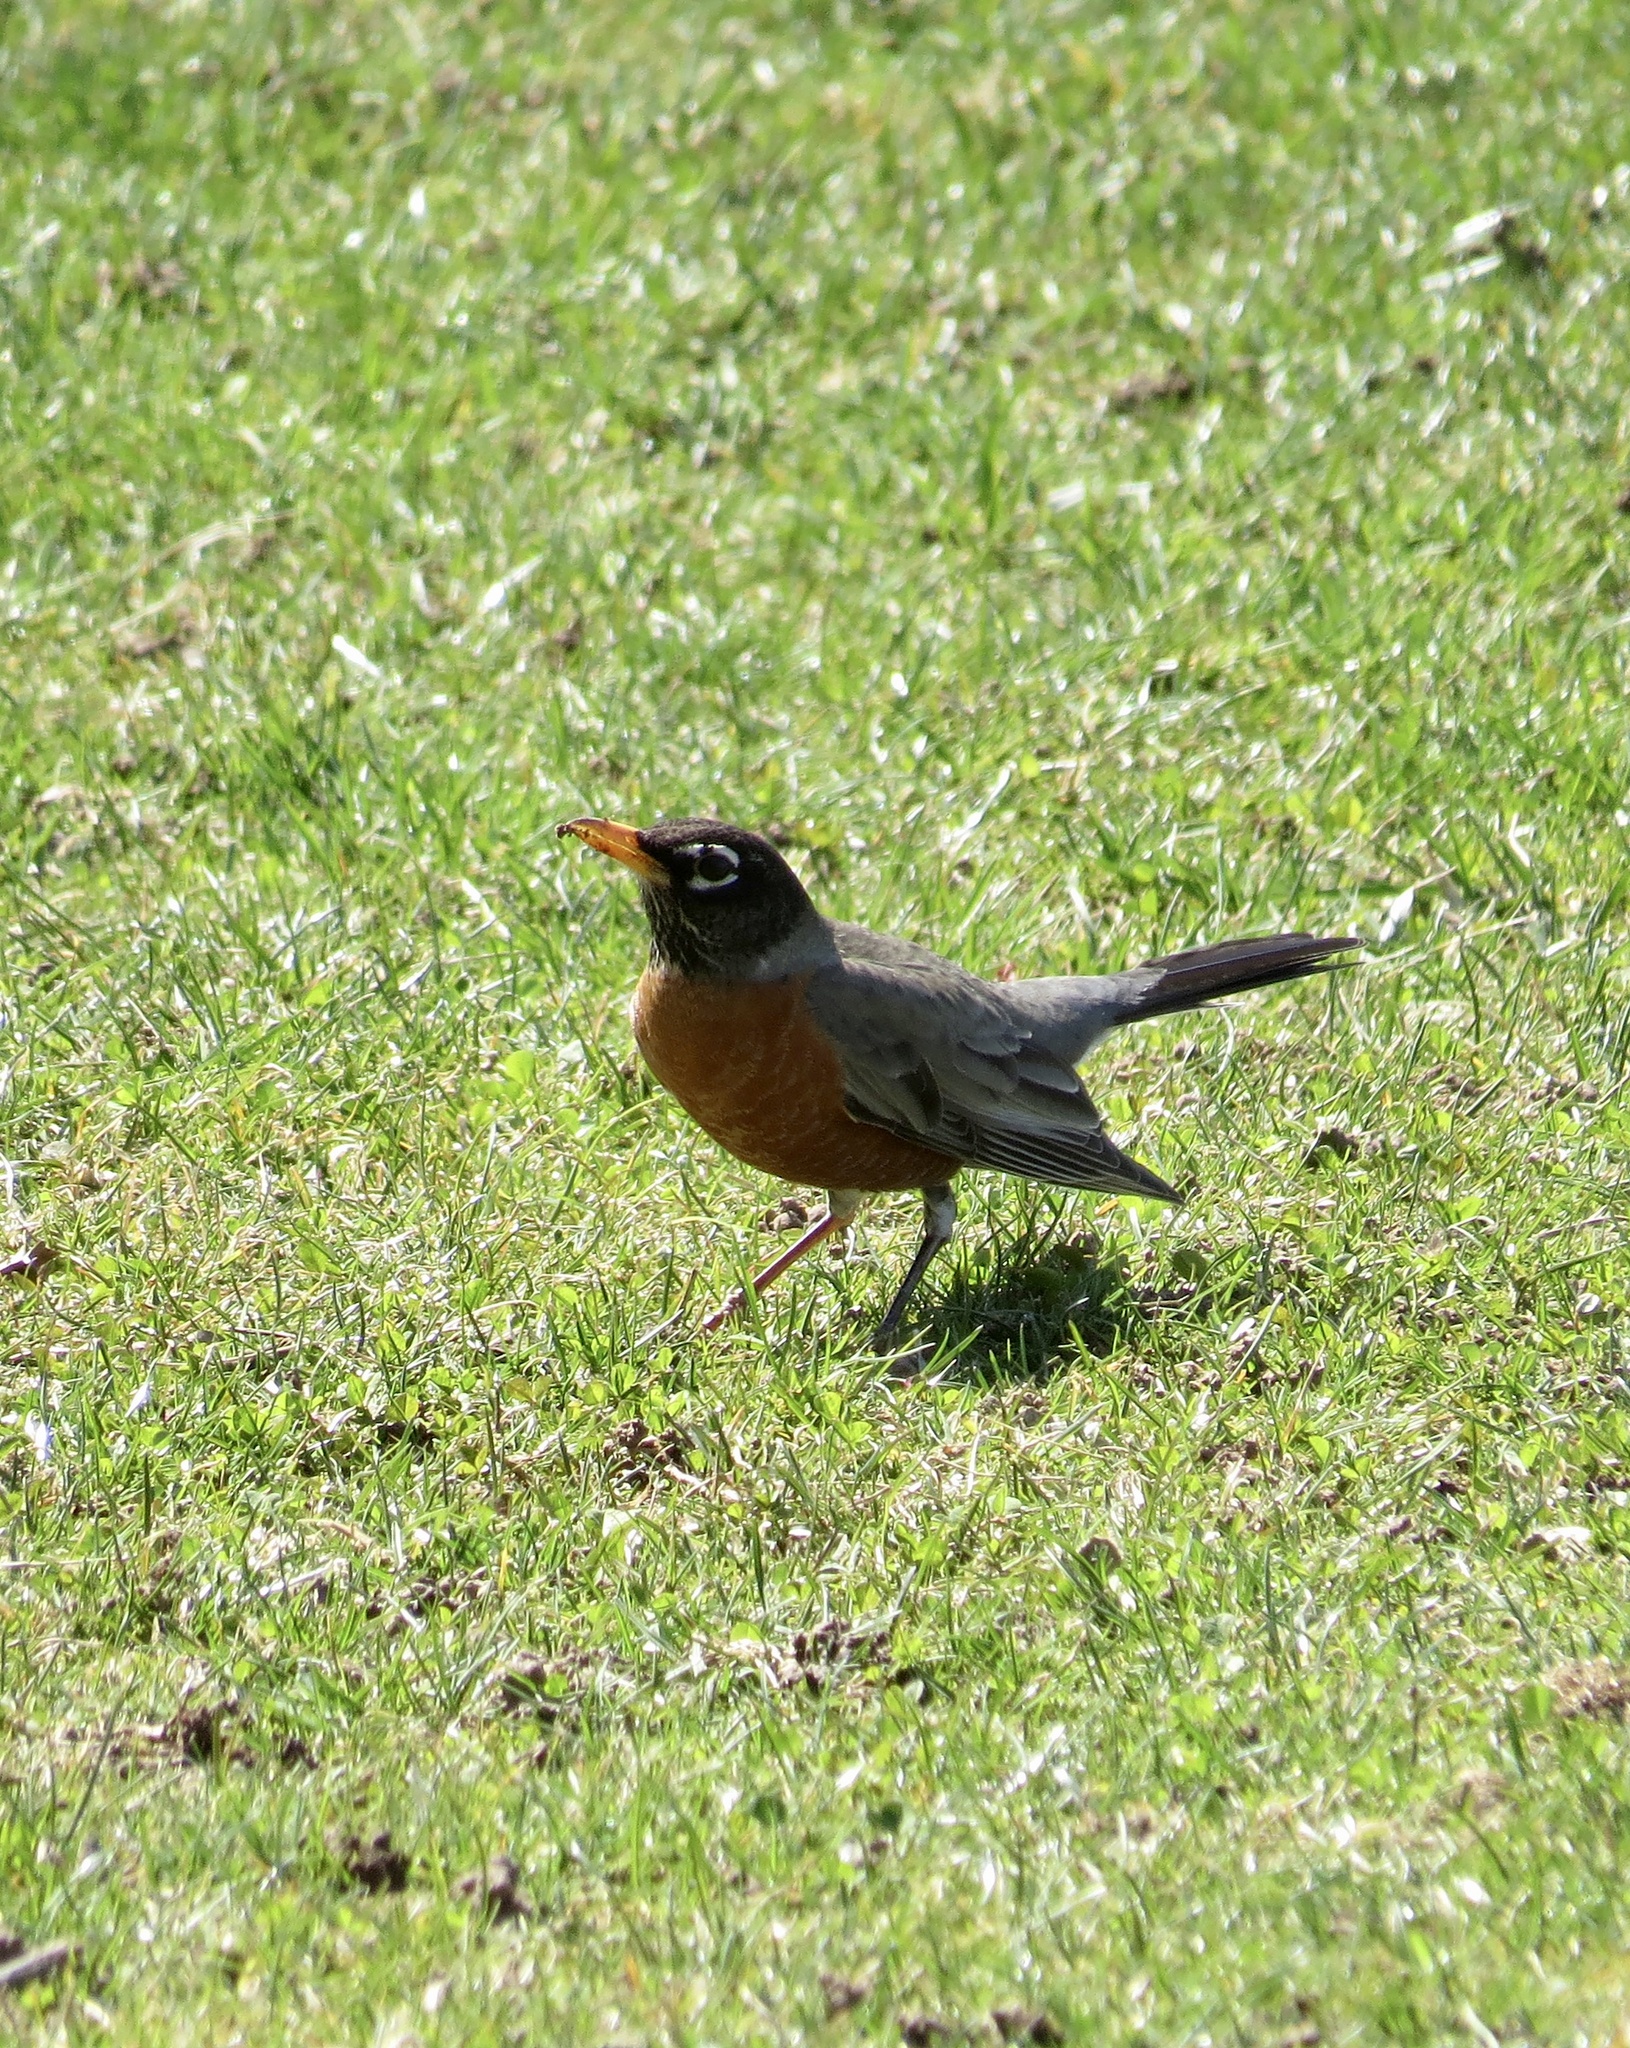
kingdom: Animalia
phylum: Chordata
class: Aves
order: Passeriformes
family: Turdidae
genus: Turdus
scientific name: Turdus migratorius
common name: American robin
